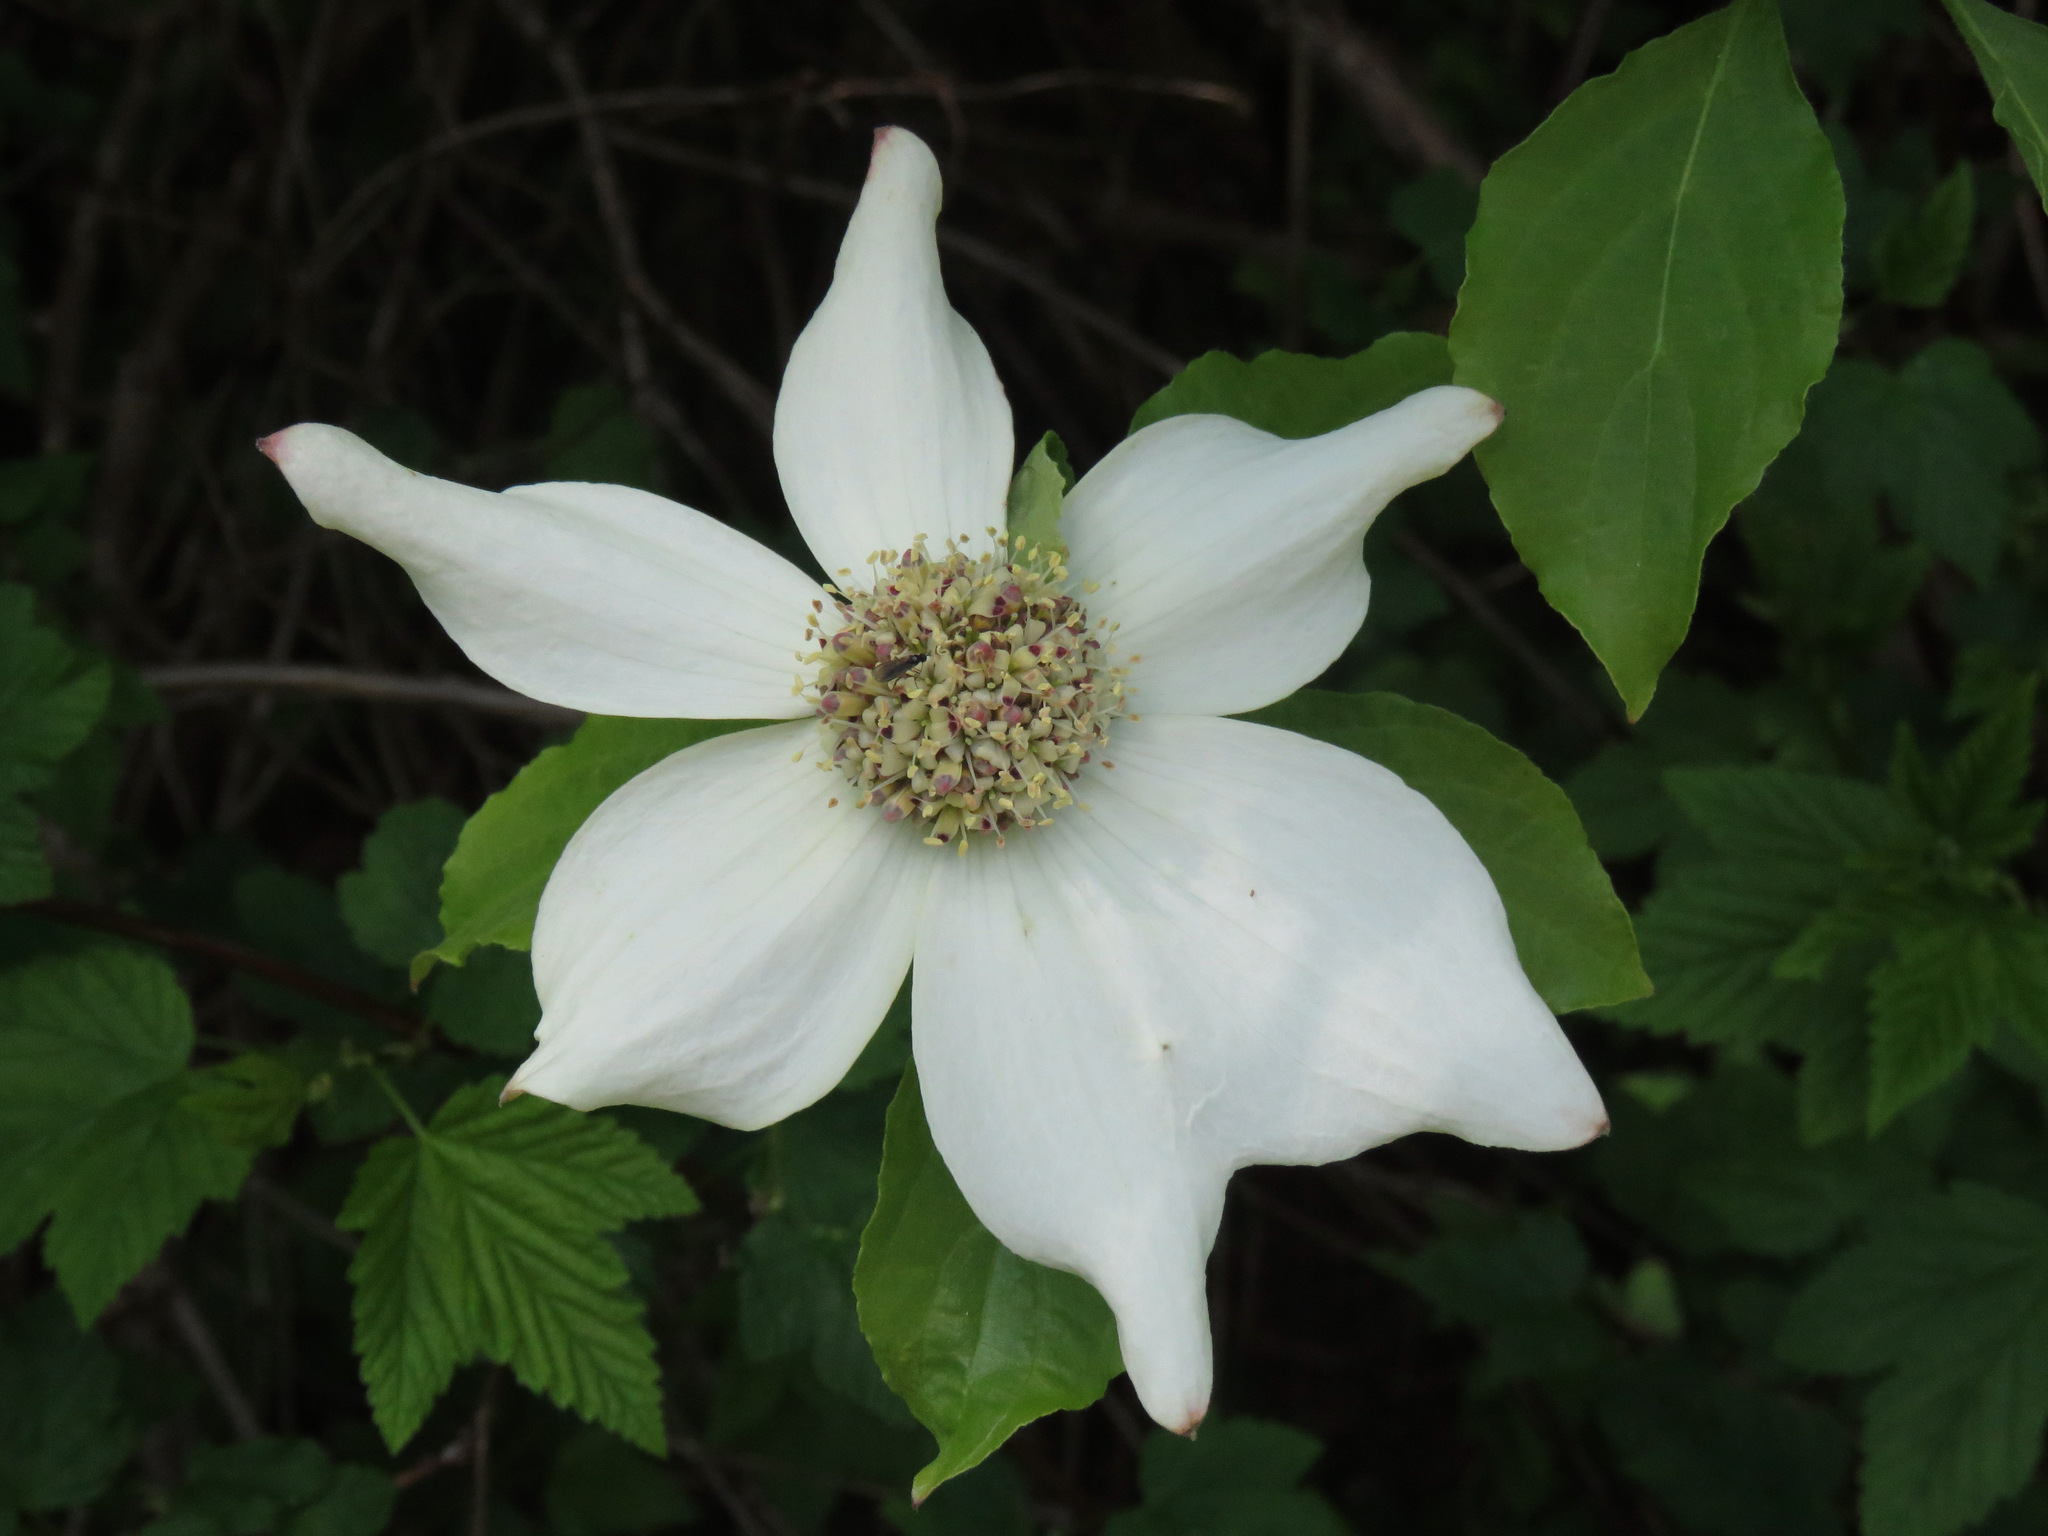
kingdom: Plantae
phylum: Tracheophyta
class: Magnoliopsida
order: Cornales
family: Cornaceae
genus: Cornus
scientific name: Cornus nuttallii
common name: Pacific dogwood
